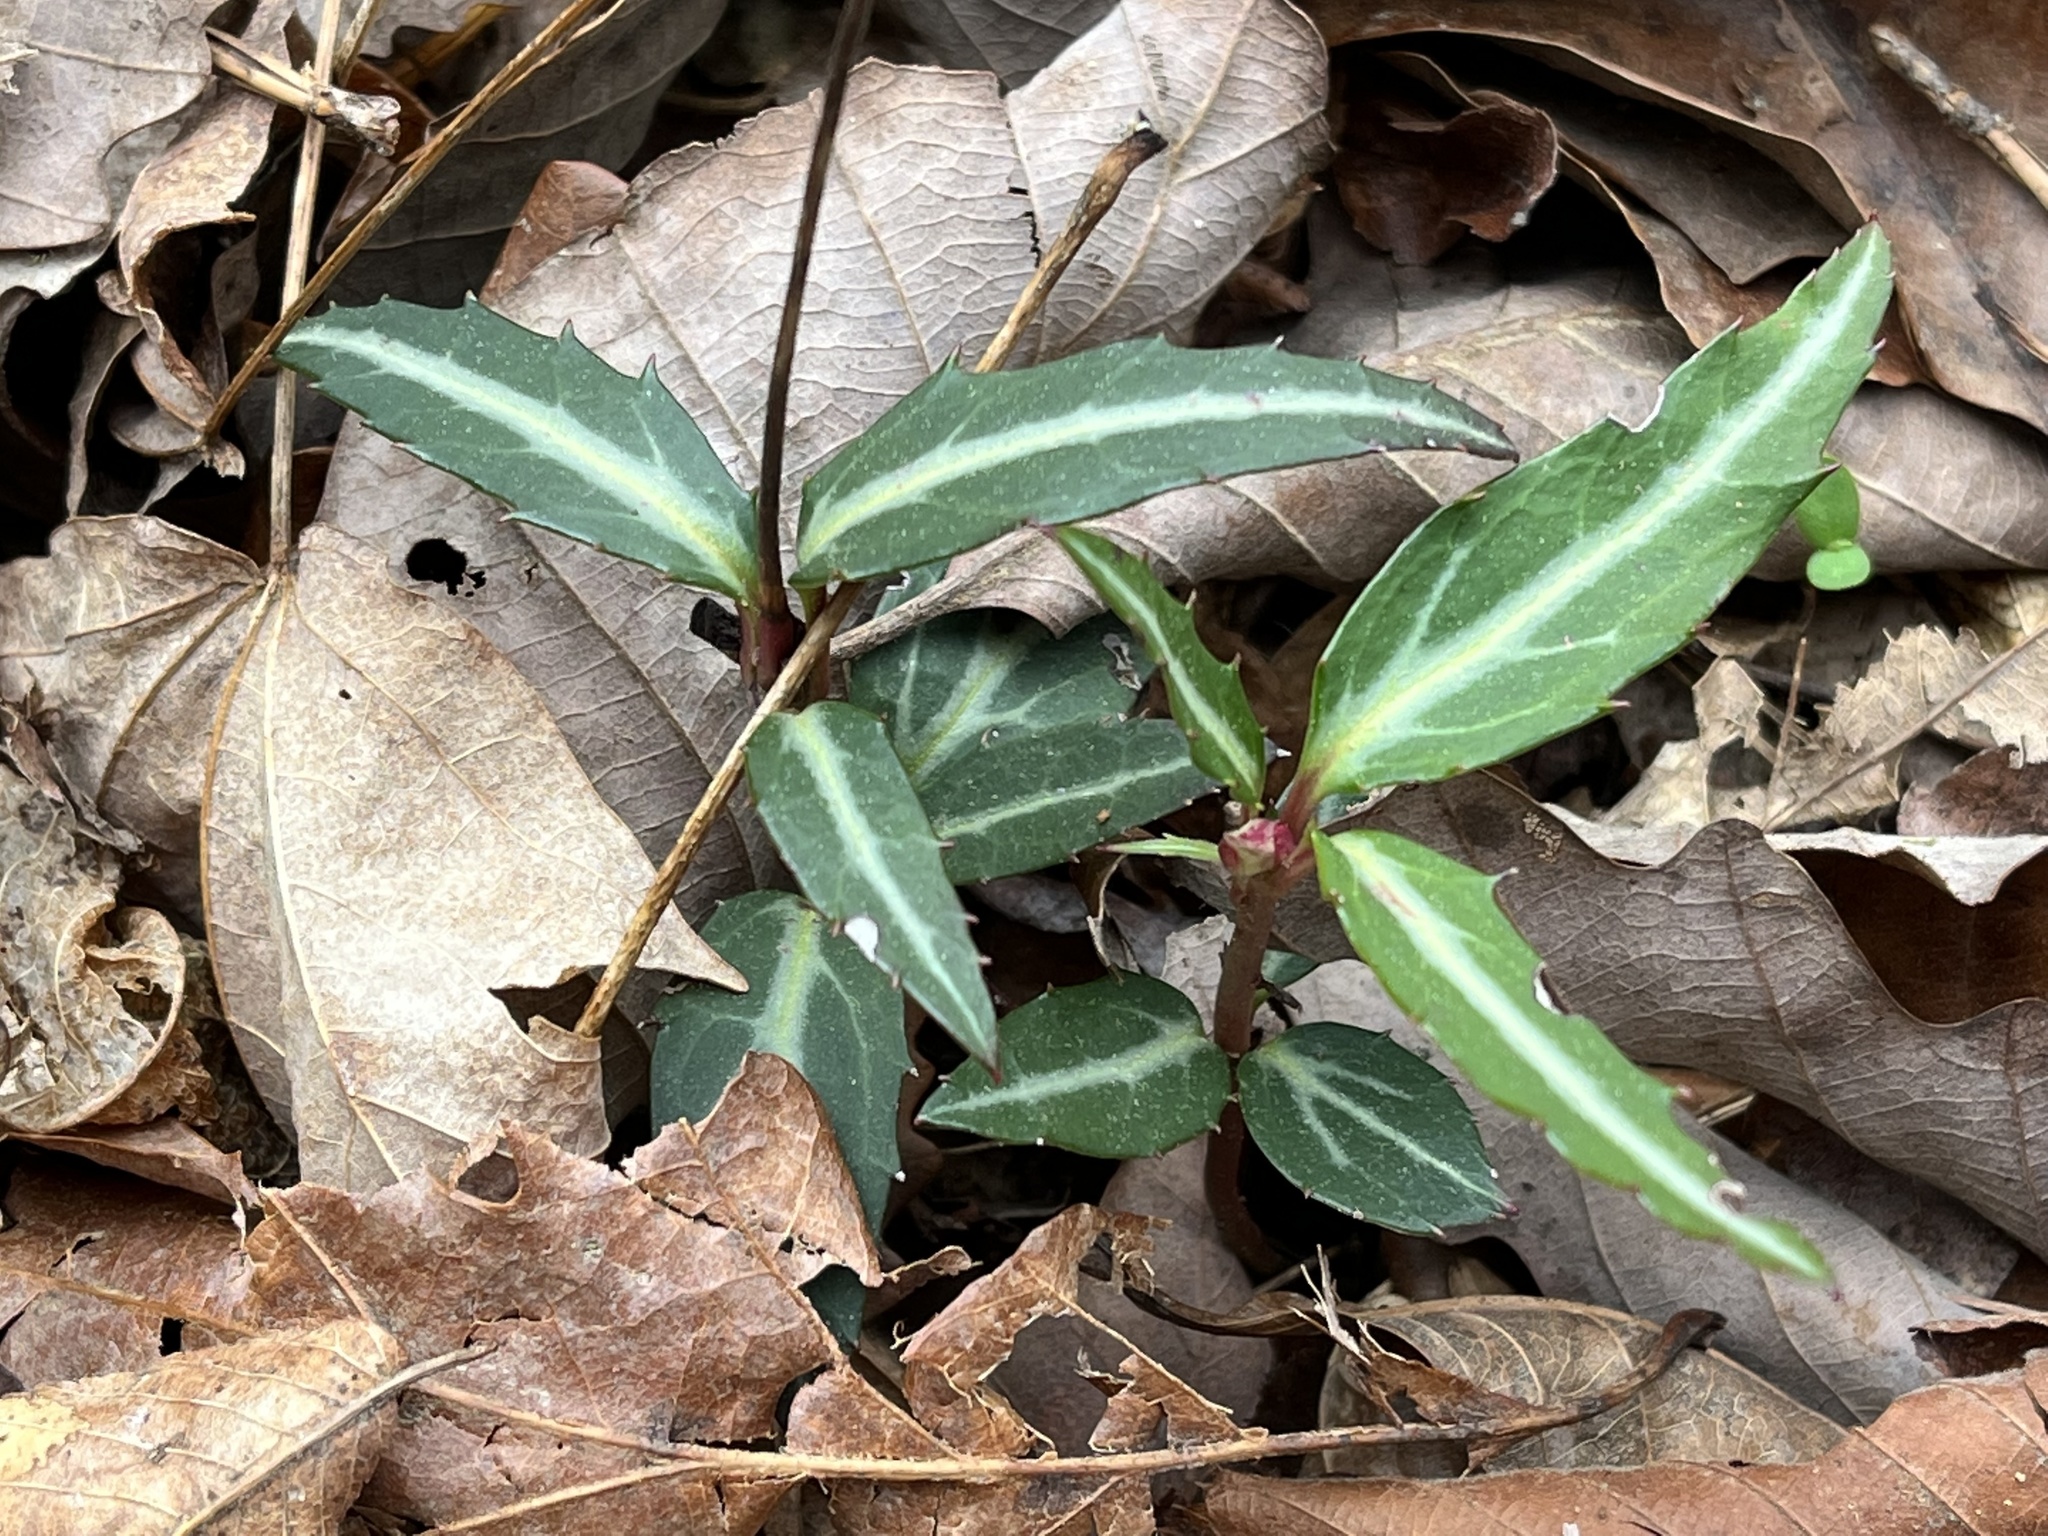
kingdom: Plantae
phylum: Tracheophyta
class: Magnoliopsida
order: Ericales
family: Ericaceae
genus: Chimaphila
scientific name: Chimaphila maculata
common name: Spotted pipsissewa
